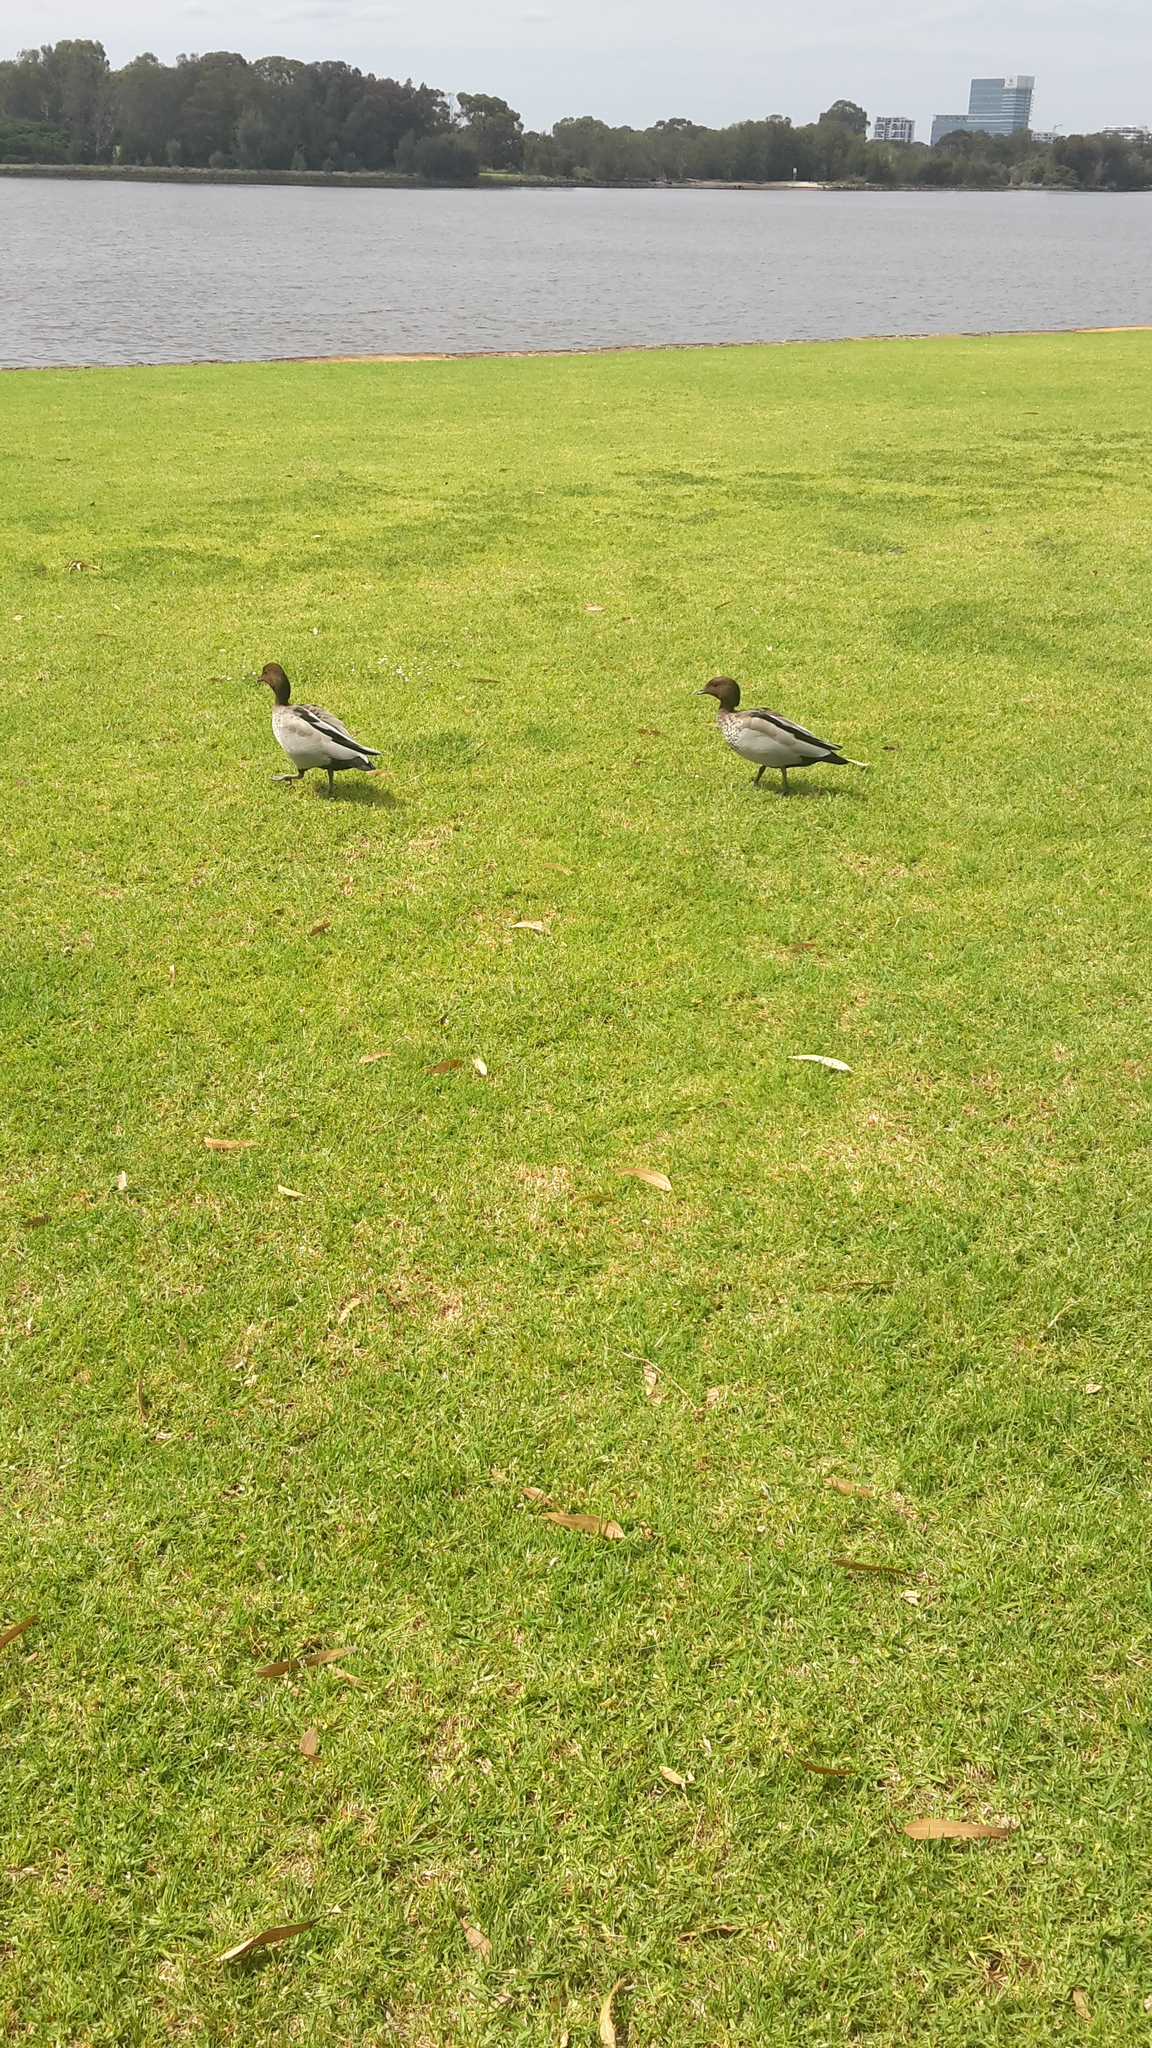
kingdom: Animalia
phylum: Chordata
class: Aves
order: Anseriformes
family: Anatidae
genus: Chenonetta
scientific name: Chenonetta jubata
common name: Maned duck
